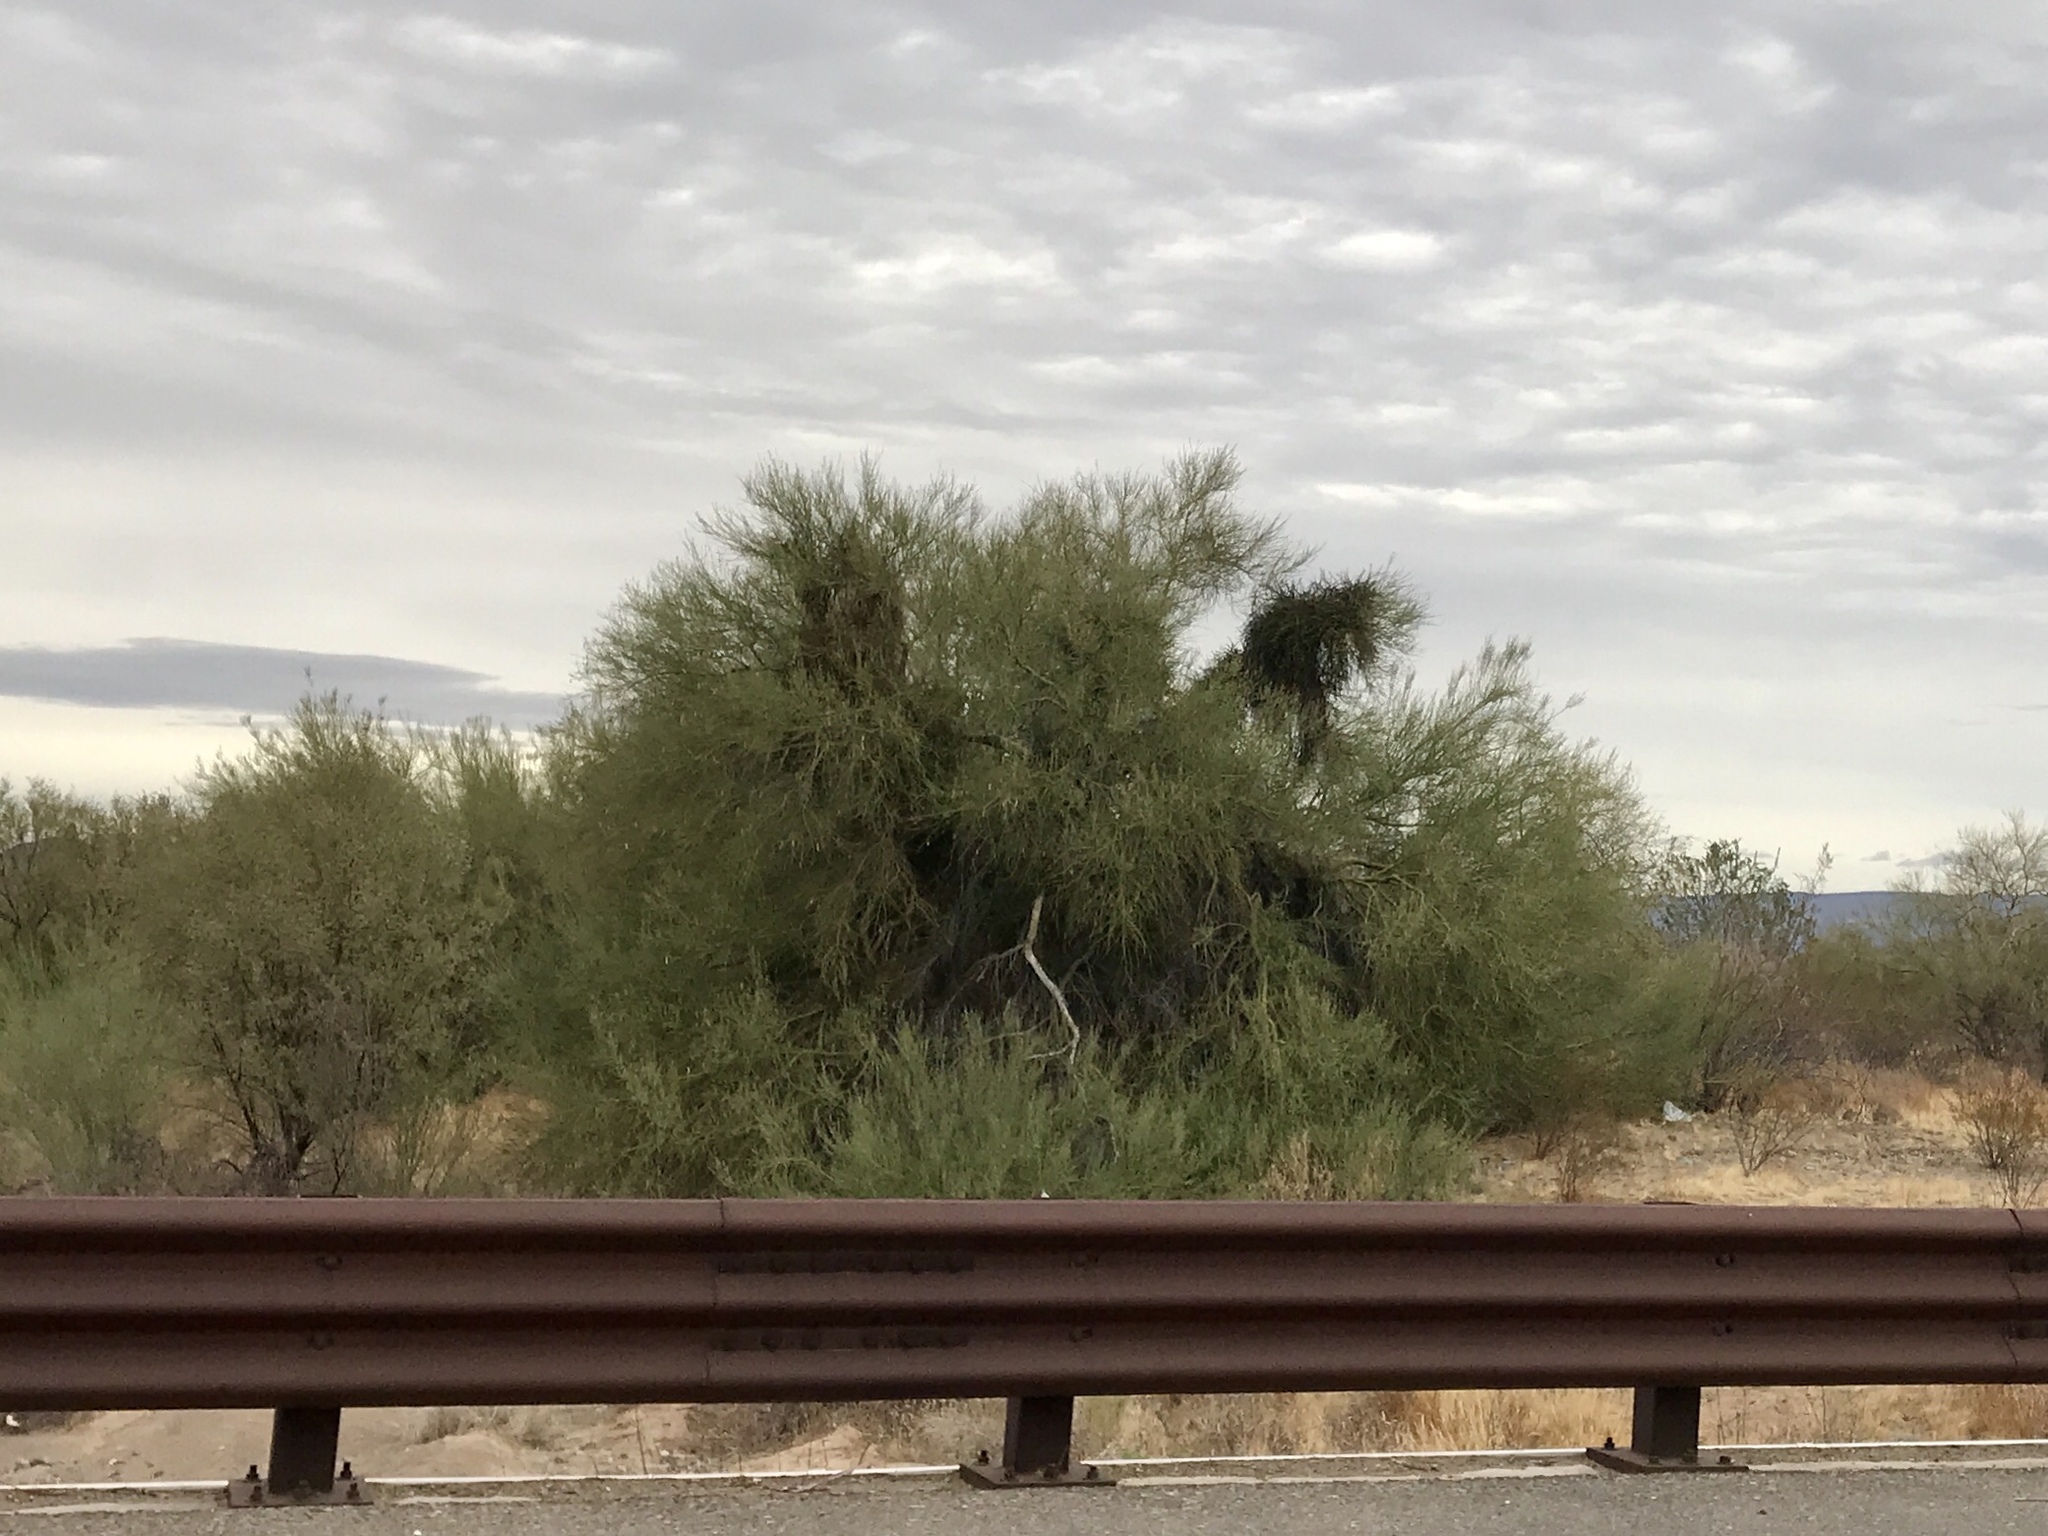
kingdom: Plantae
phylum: Tracheophyta
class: Magnoliopsida
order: Fabales
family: Fabaceae
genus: Parkinsonia
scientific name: Parkinsonia florida
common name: Blue paloverde
